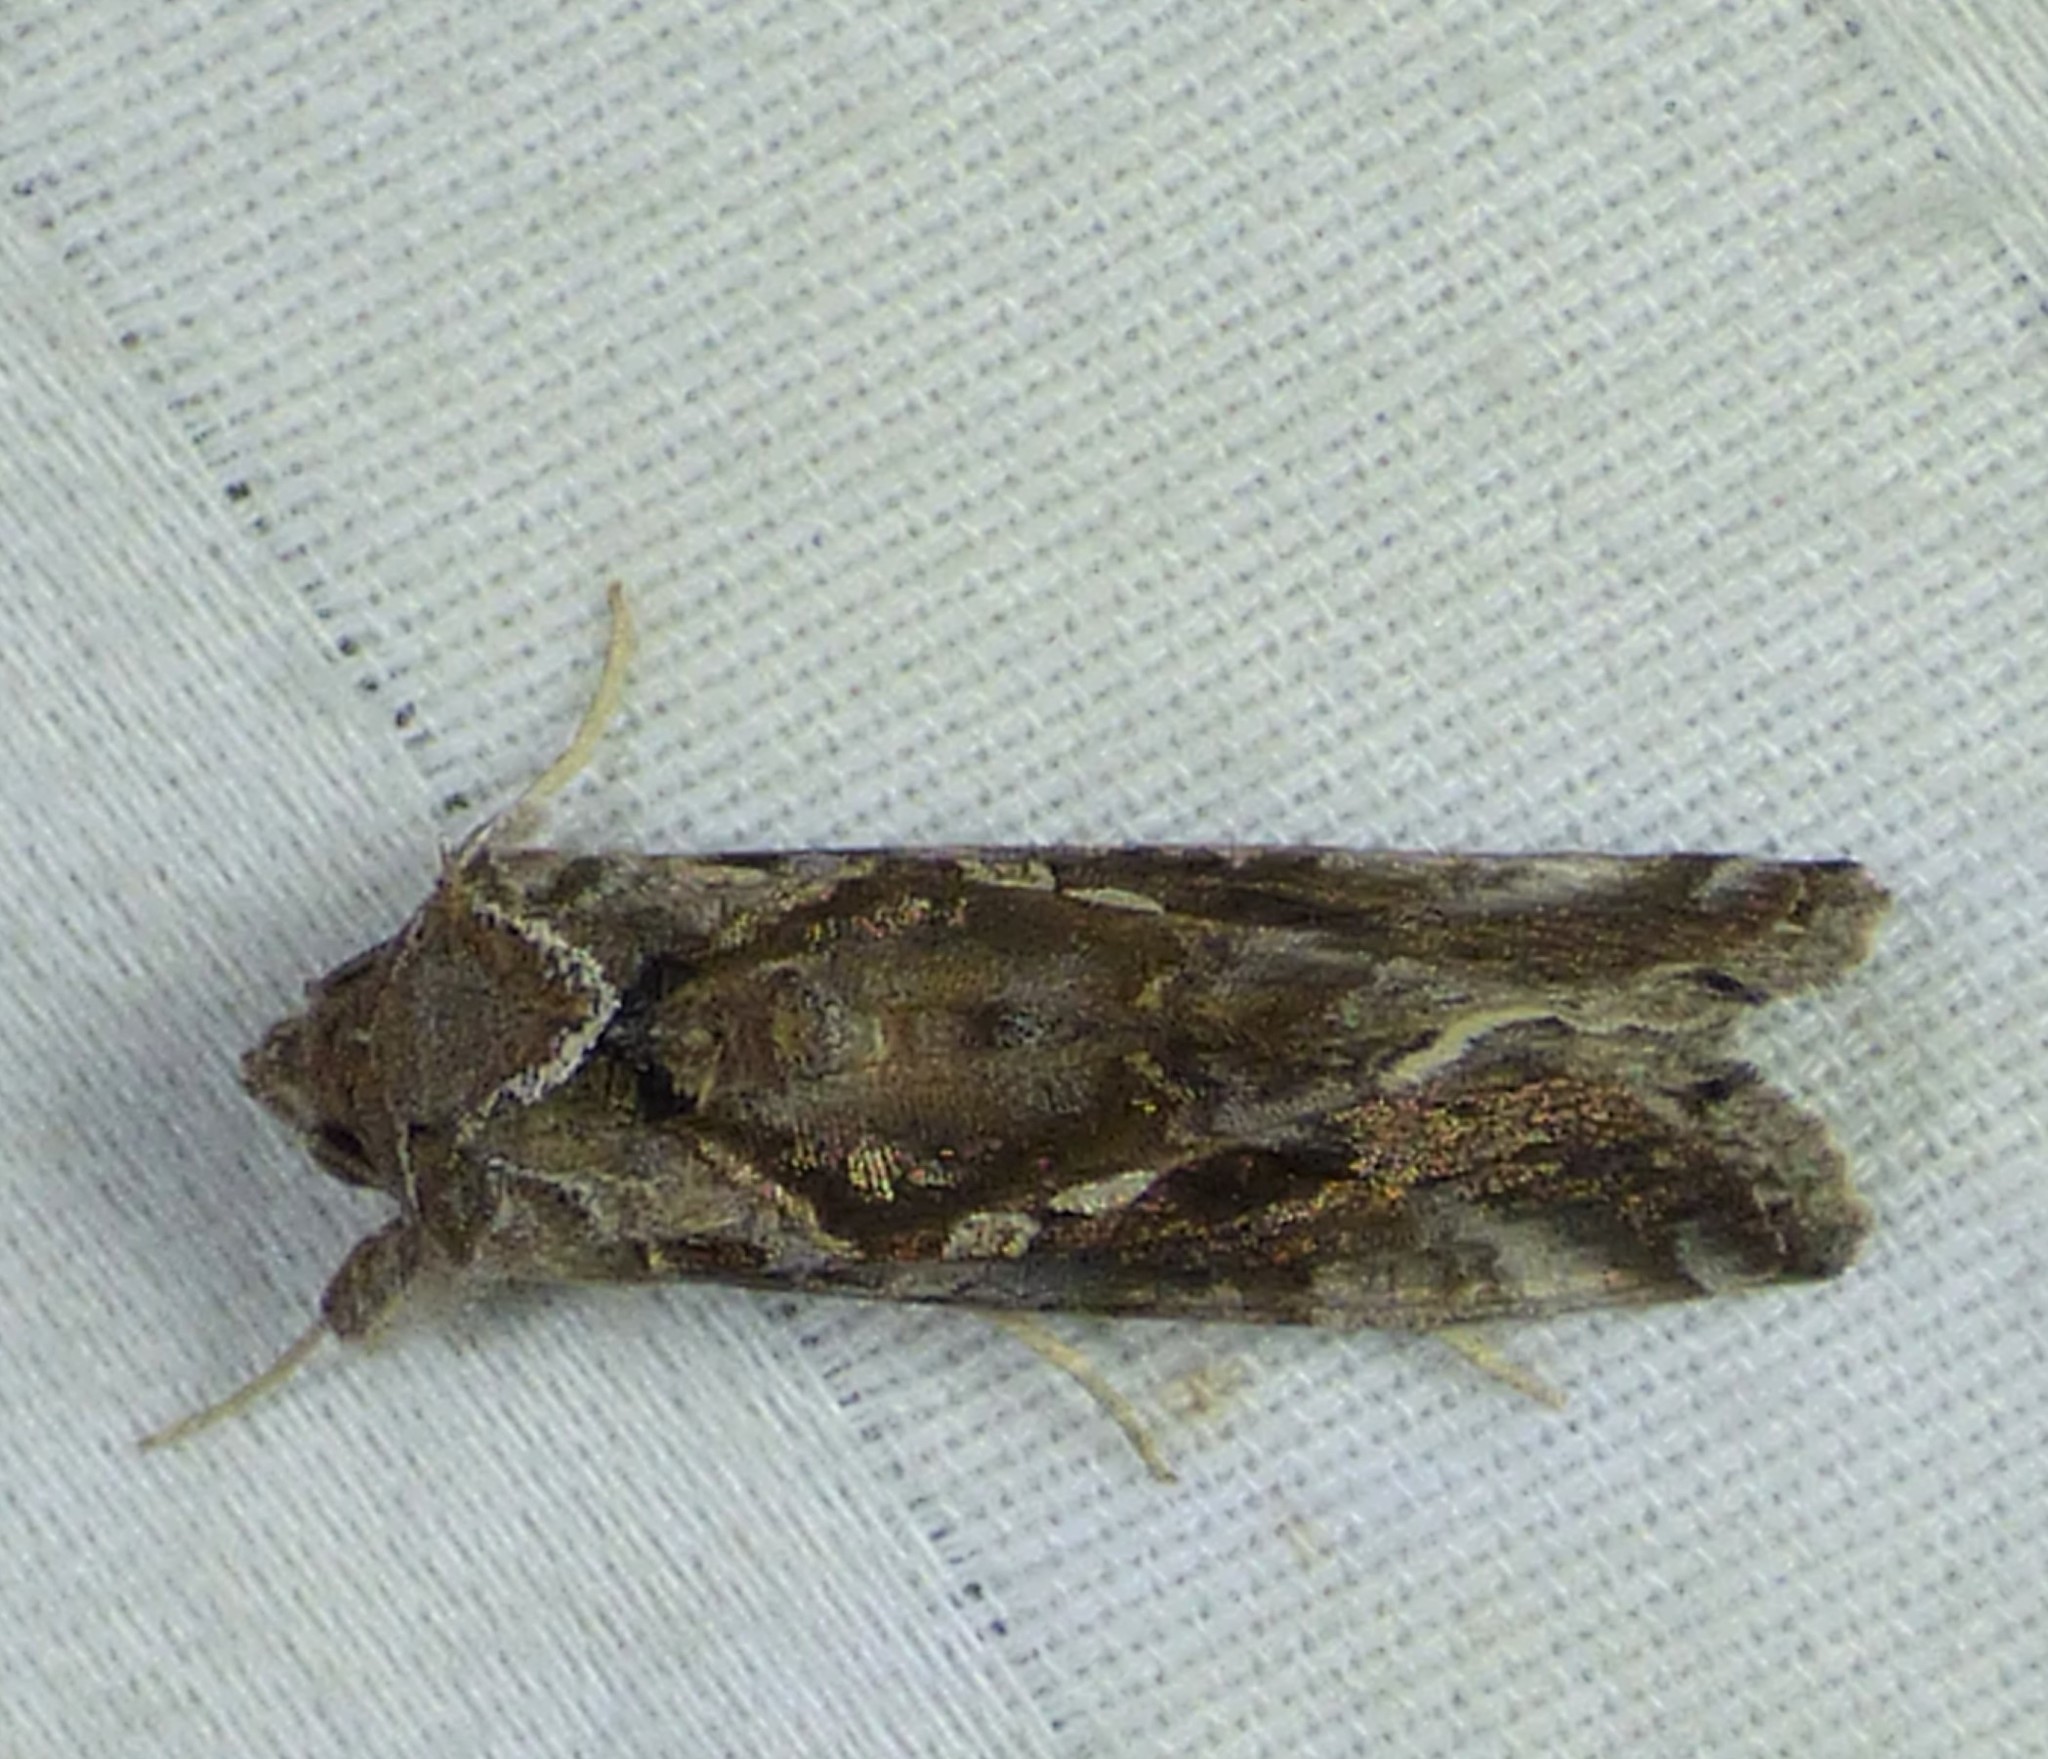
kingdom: Animalia
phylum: Arthropoda
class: Insecta
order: Lepidoptera
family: Noctuidae
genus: Chrysodeixis
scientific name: Chrysodeixis includens
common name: Cutworm moth
